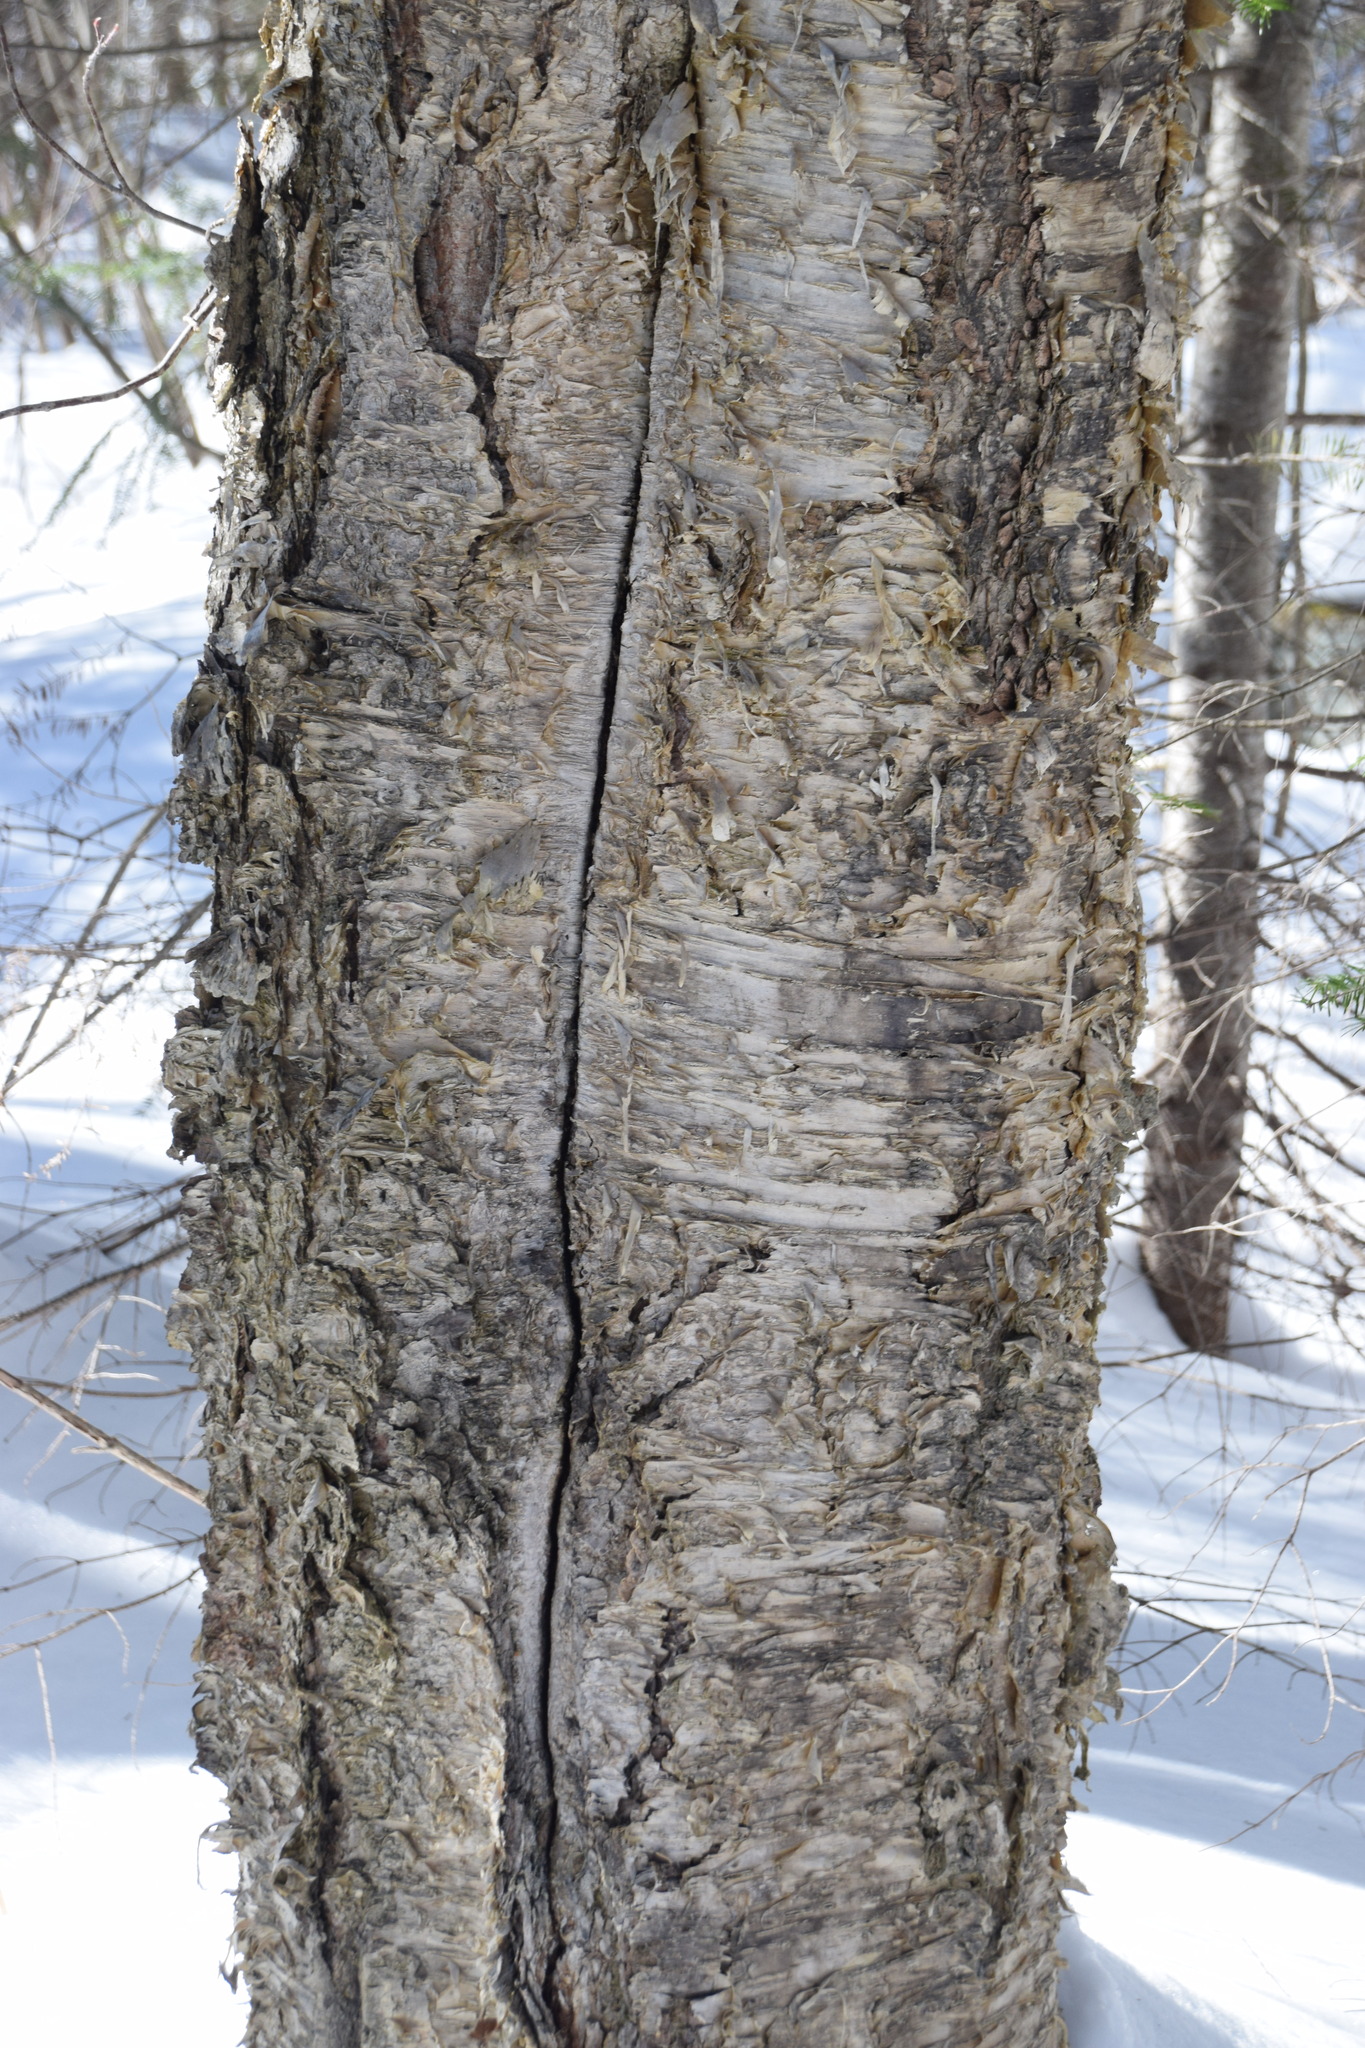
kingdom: Plantae
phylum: Tracheophyta
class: Magnoliopsida
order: Fagales
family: Betulaceae
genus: Betula
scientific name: Betula alleghaniensis
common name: Yellow birch
